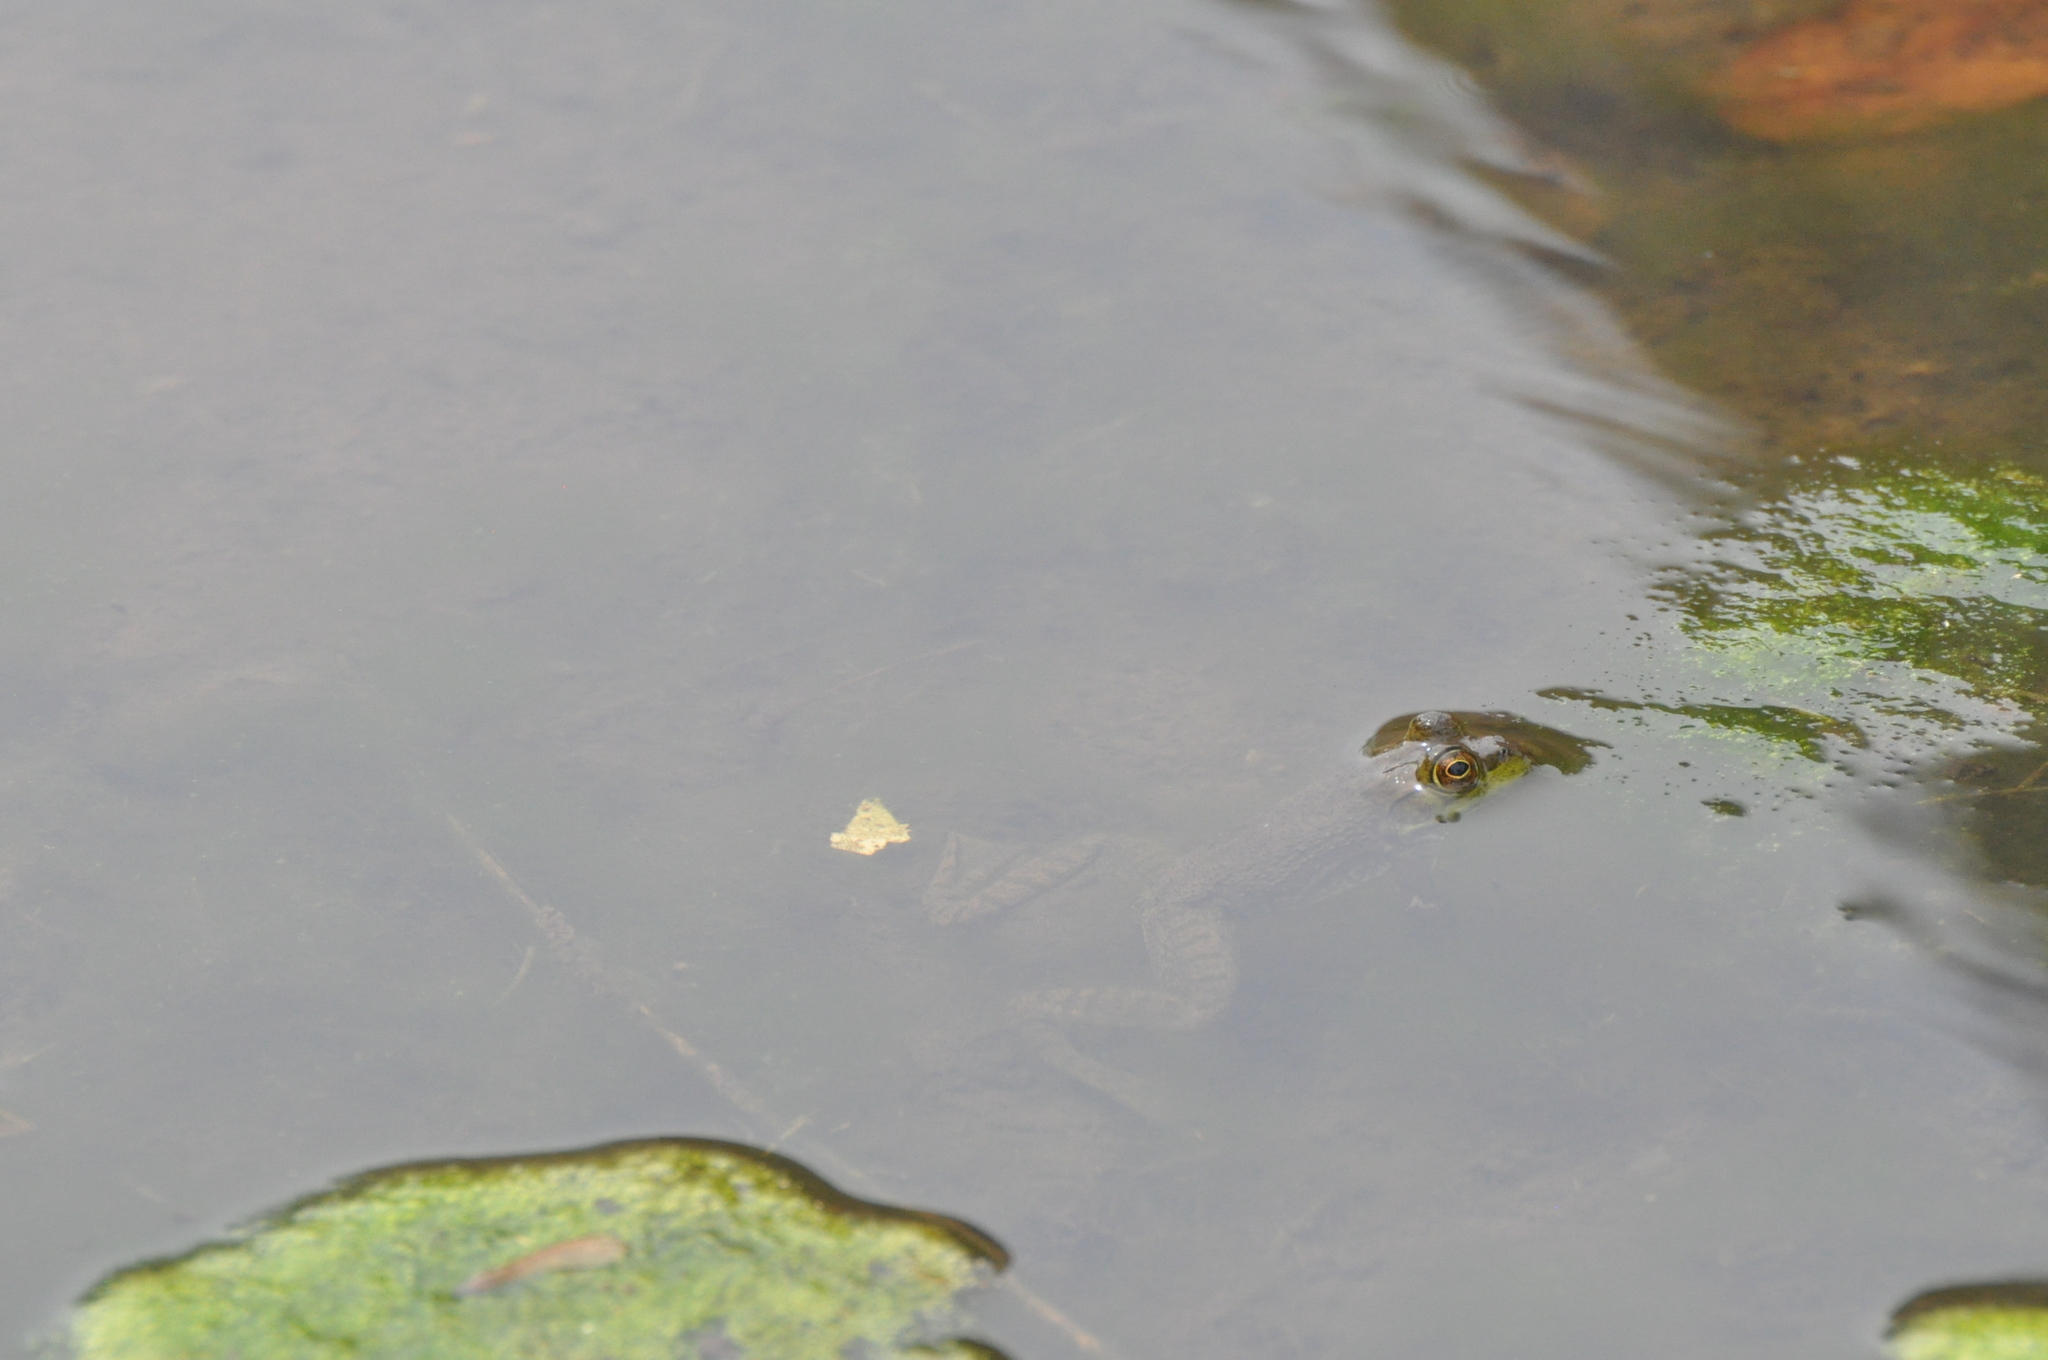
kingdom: Animalia
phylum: Chordata
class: Amphibia
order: Anura
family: Ranidae
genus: Lithobates
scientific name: Lithobates catesbeianus
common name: American bullfrog
